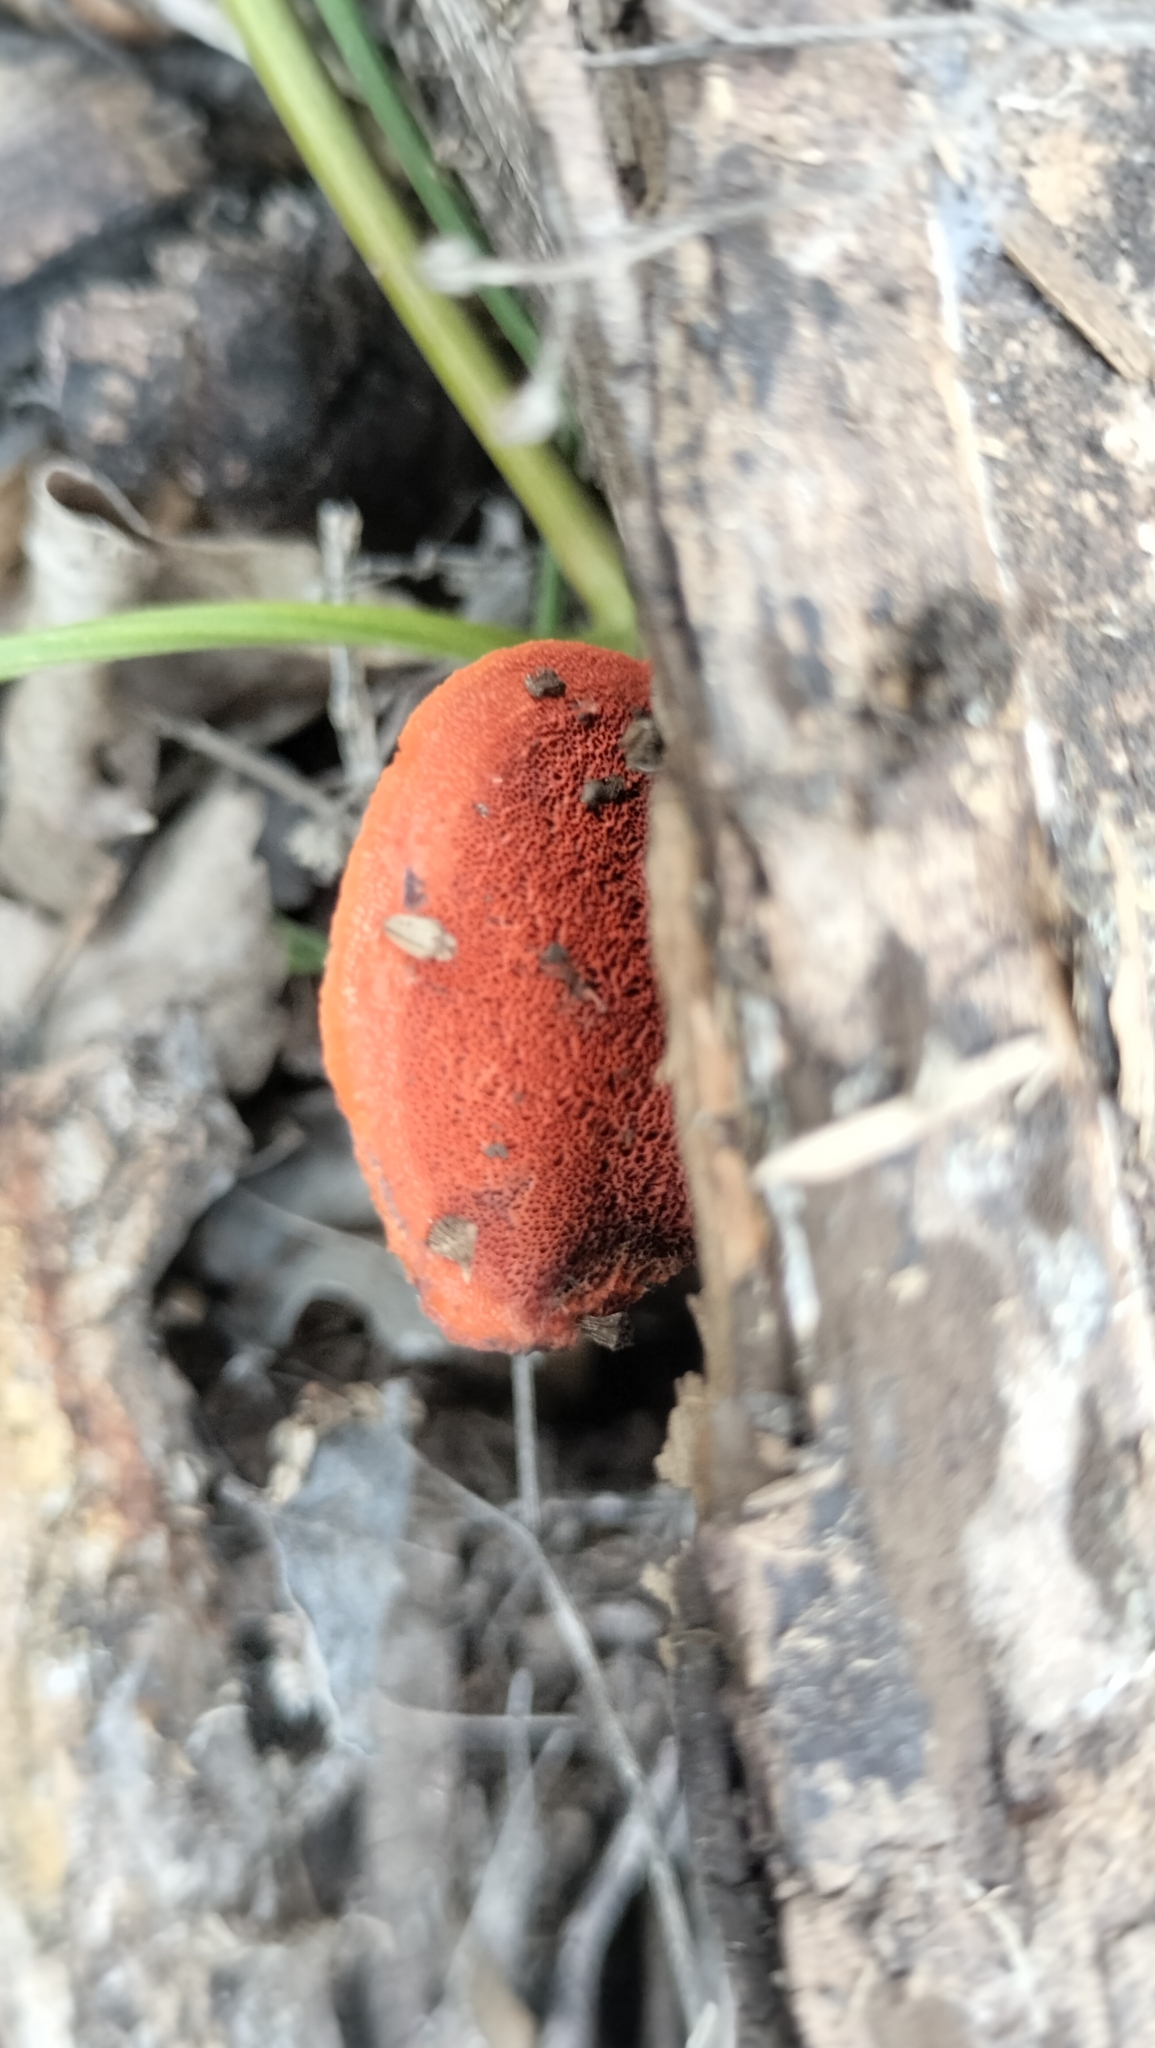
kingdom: Fungi
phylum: Basidiomycota
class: Agaricomycetes
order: Polyporales
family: Polyporaceae
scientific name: Polyporaceae
